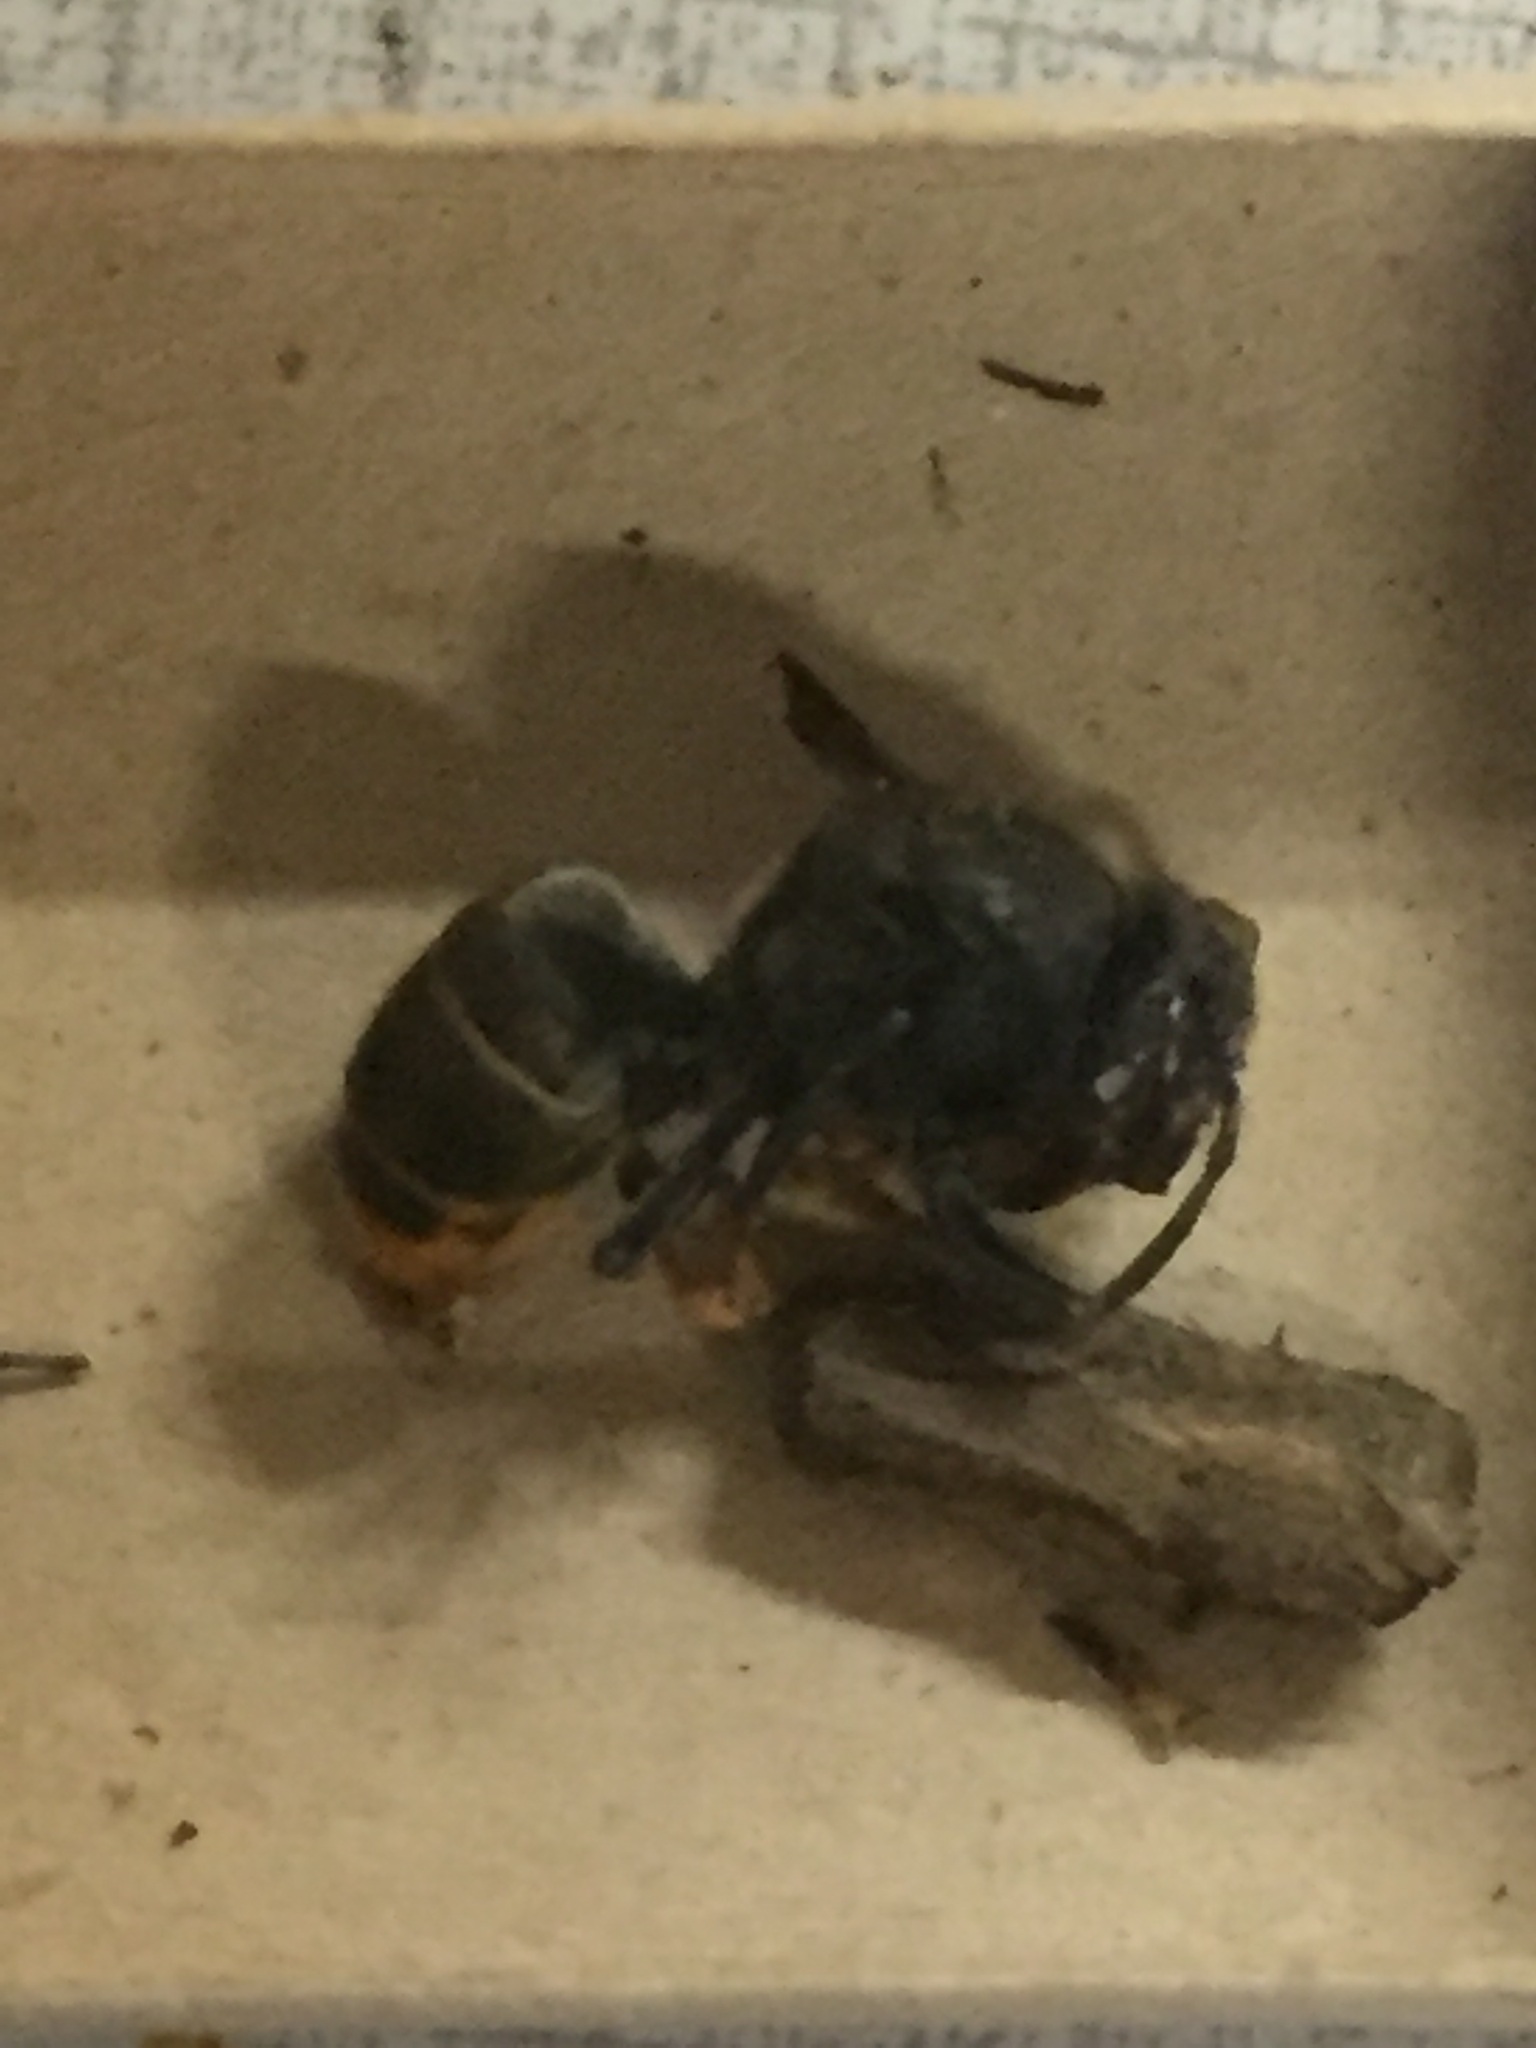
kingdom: Animalia
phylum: Arthropoda
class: Insecta
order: Hymenoptera
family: Vespidae
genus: Vespa
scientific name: Vespa velutina
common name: Asian hornet
